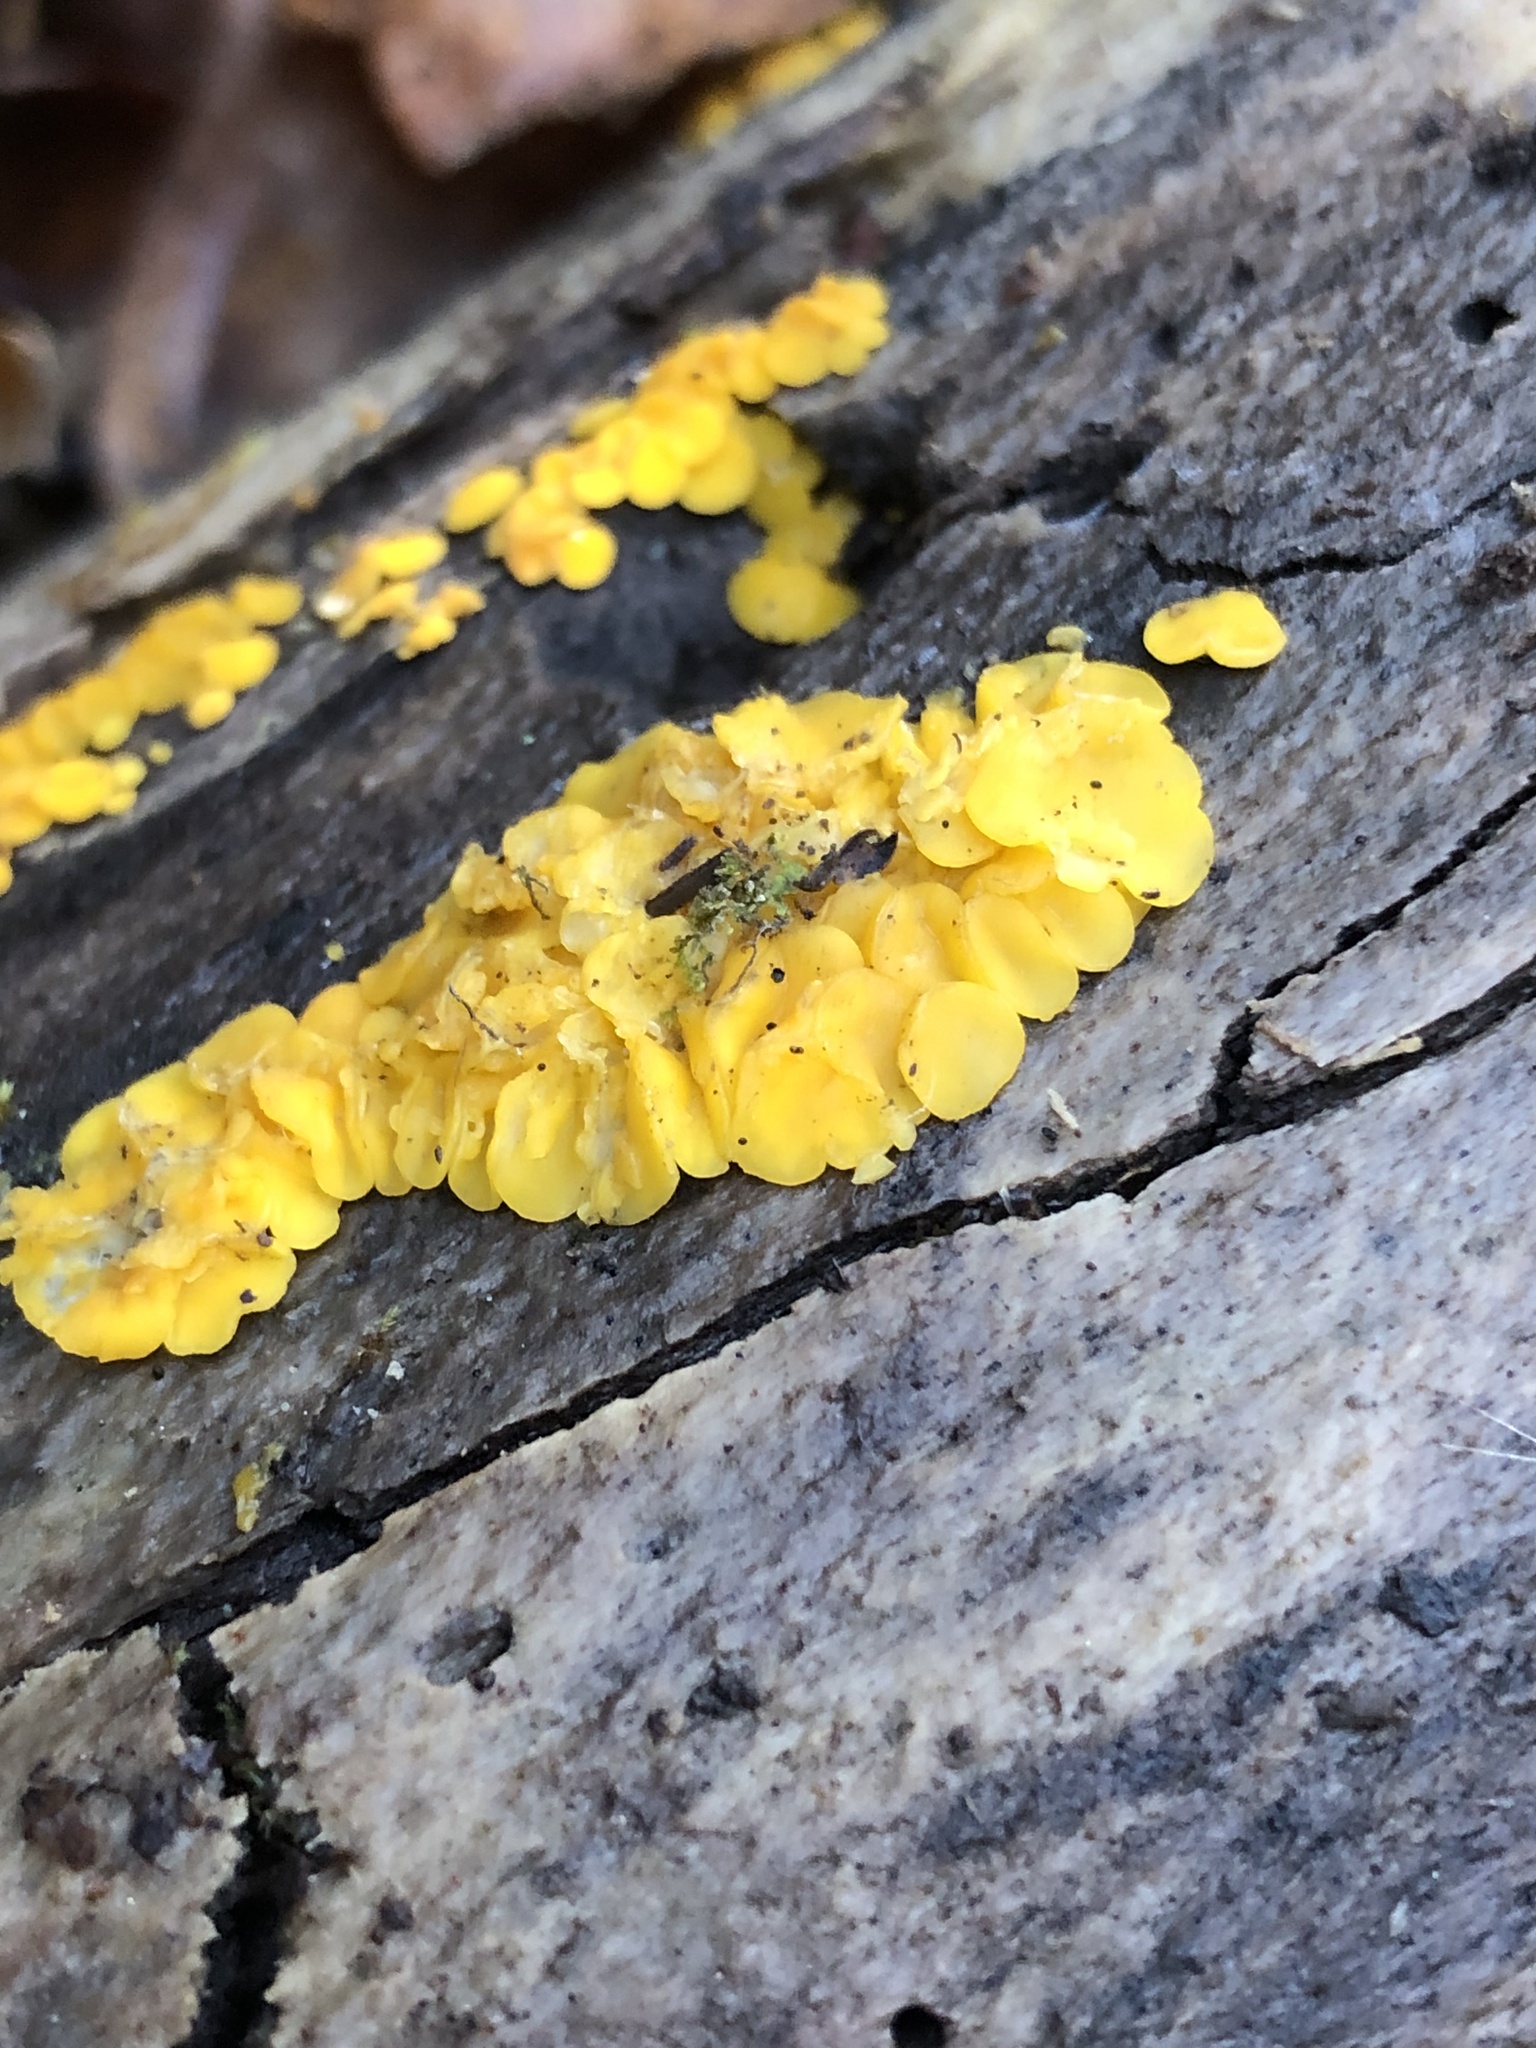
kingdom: Fungi
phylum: Ascomycota
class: Leotiomycetes
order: Helotiales
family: Pezizellaceae
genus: Calycina
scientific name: Calycina citrina
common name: Yellow fairy cups
